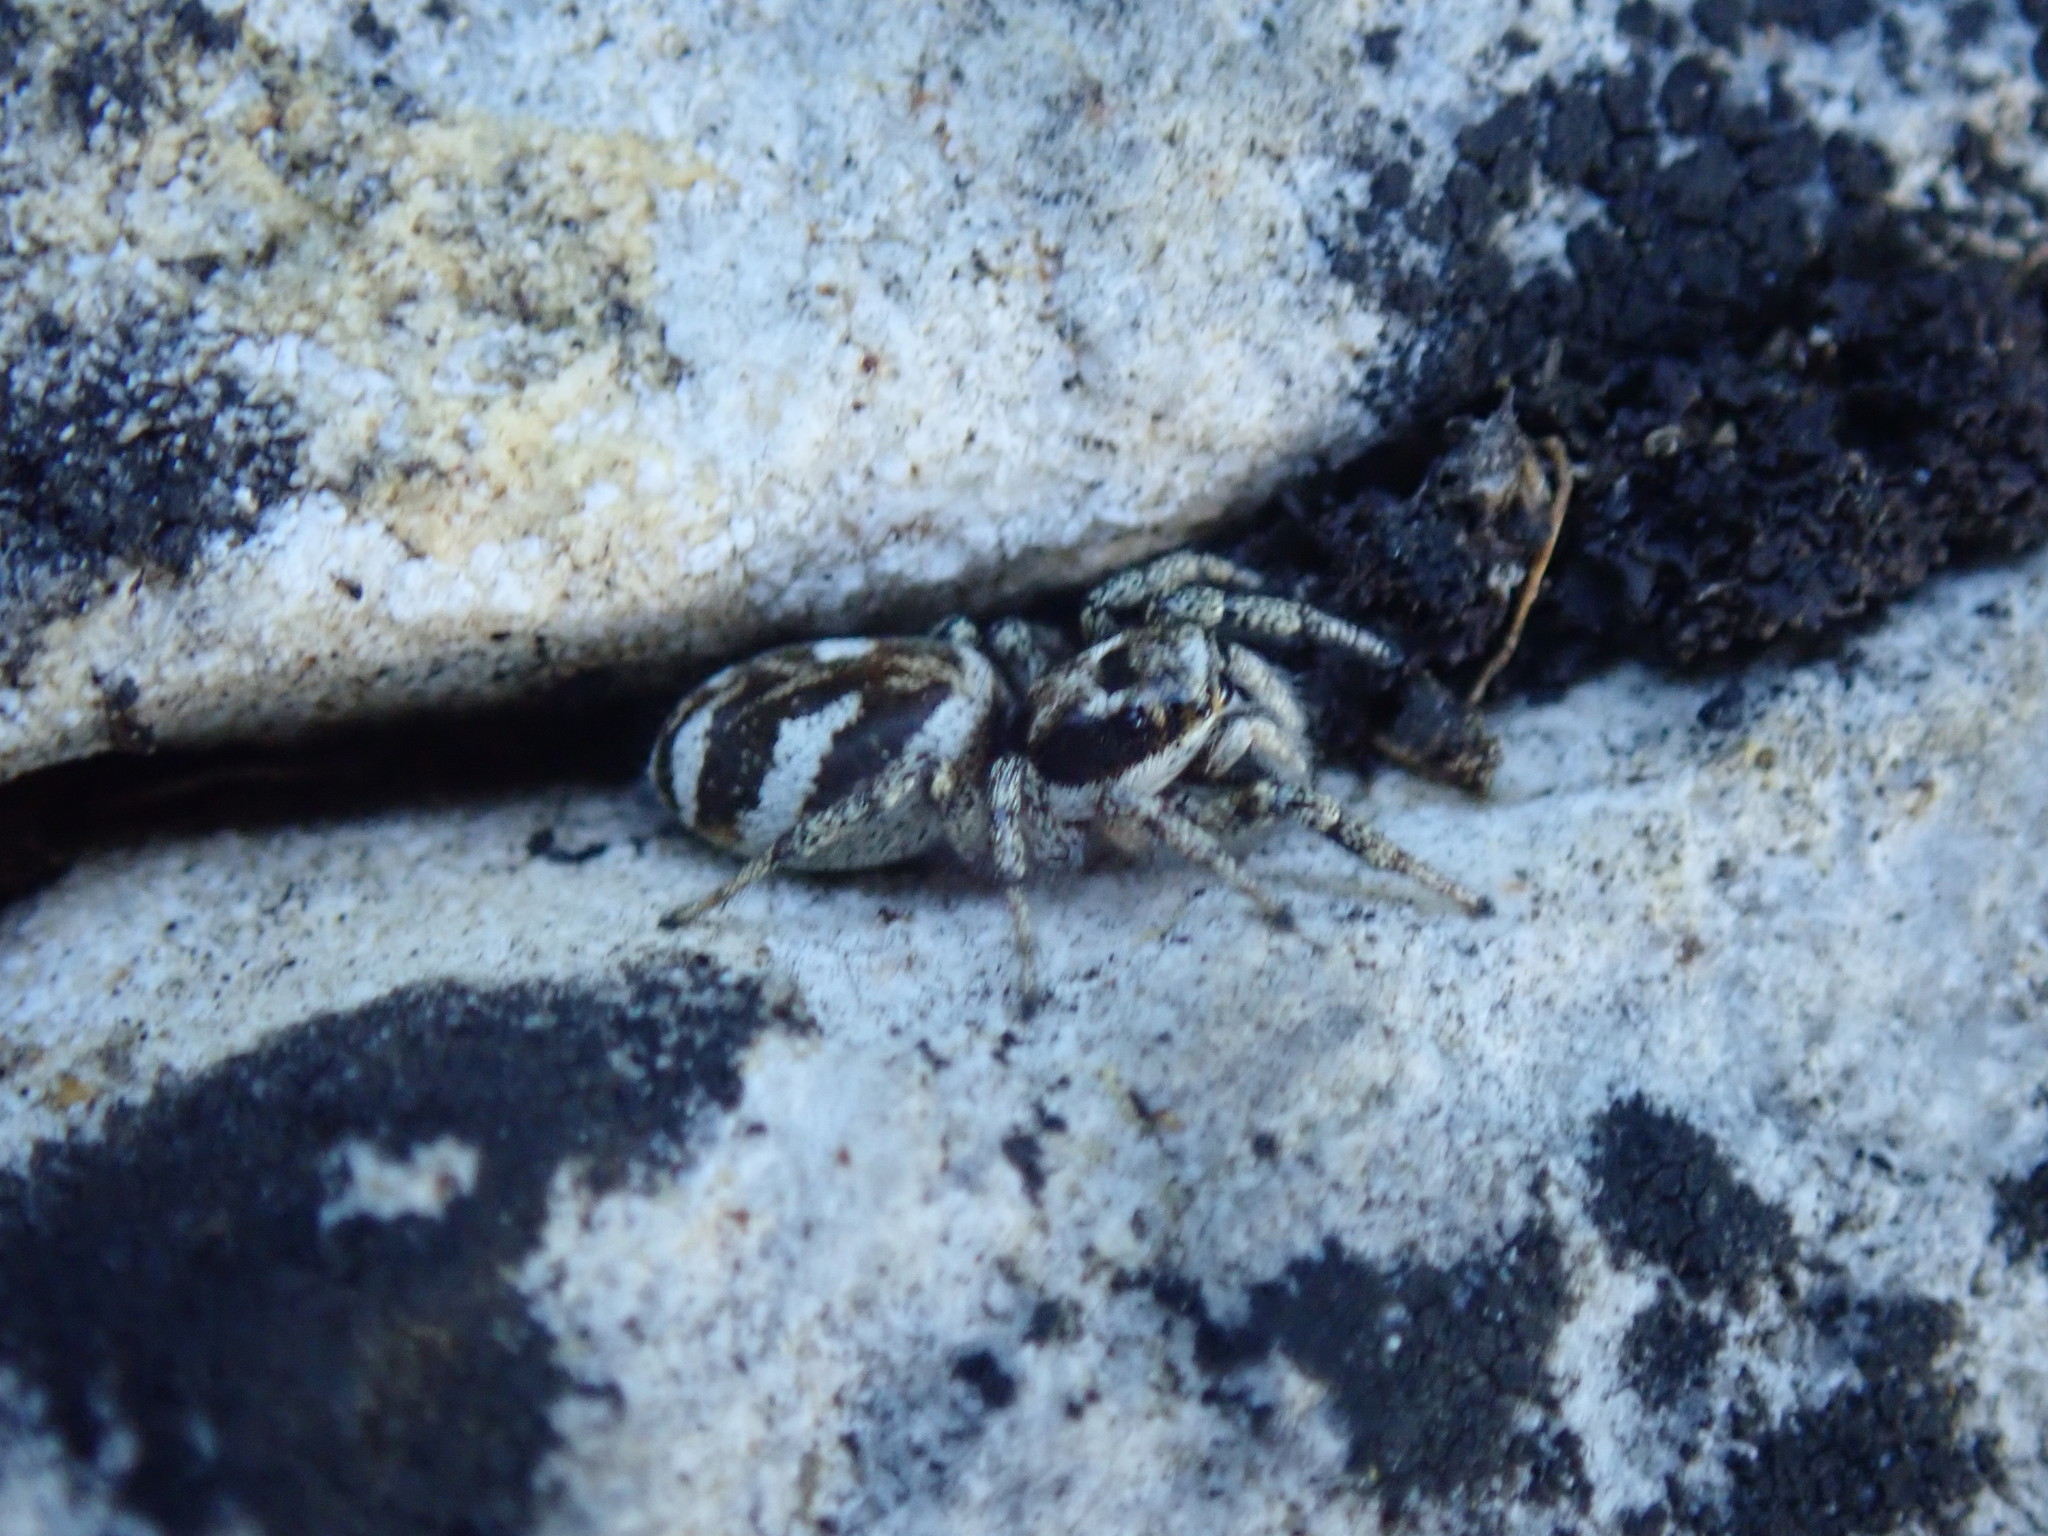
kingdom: Animalia
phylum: Arthropoda
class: Arachnida
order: Araneae
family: Salticidae
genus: Salticus
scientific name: Salticus scenicus
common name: Zebra jumper
